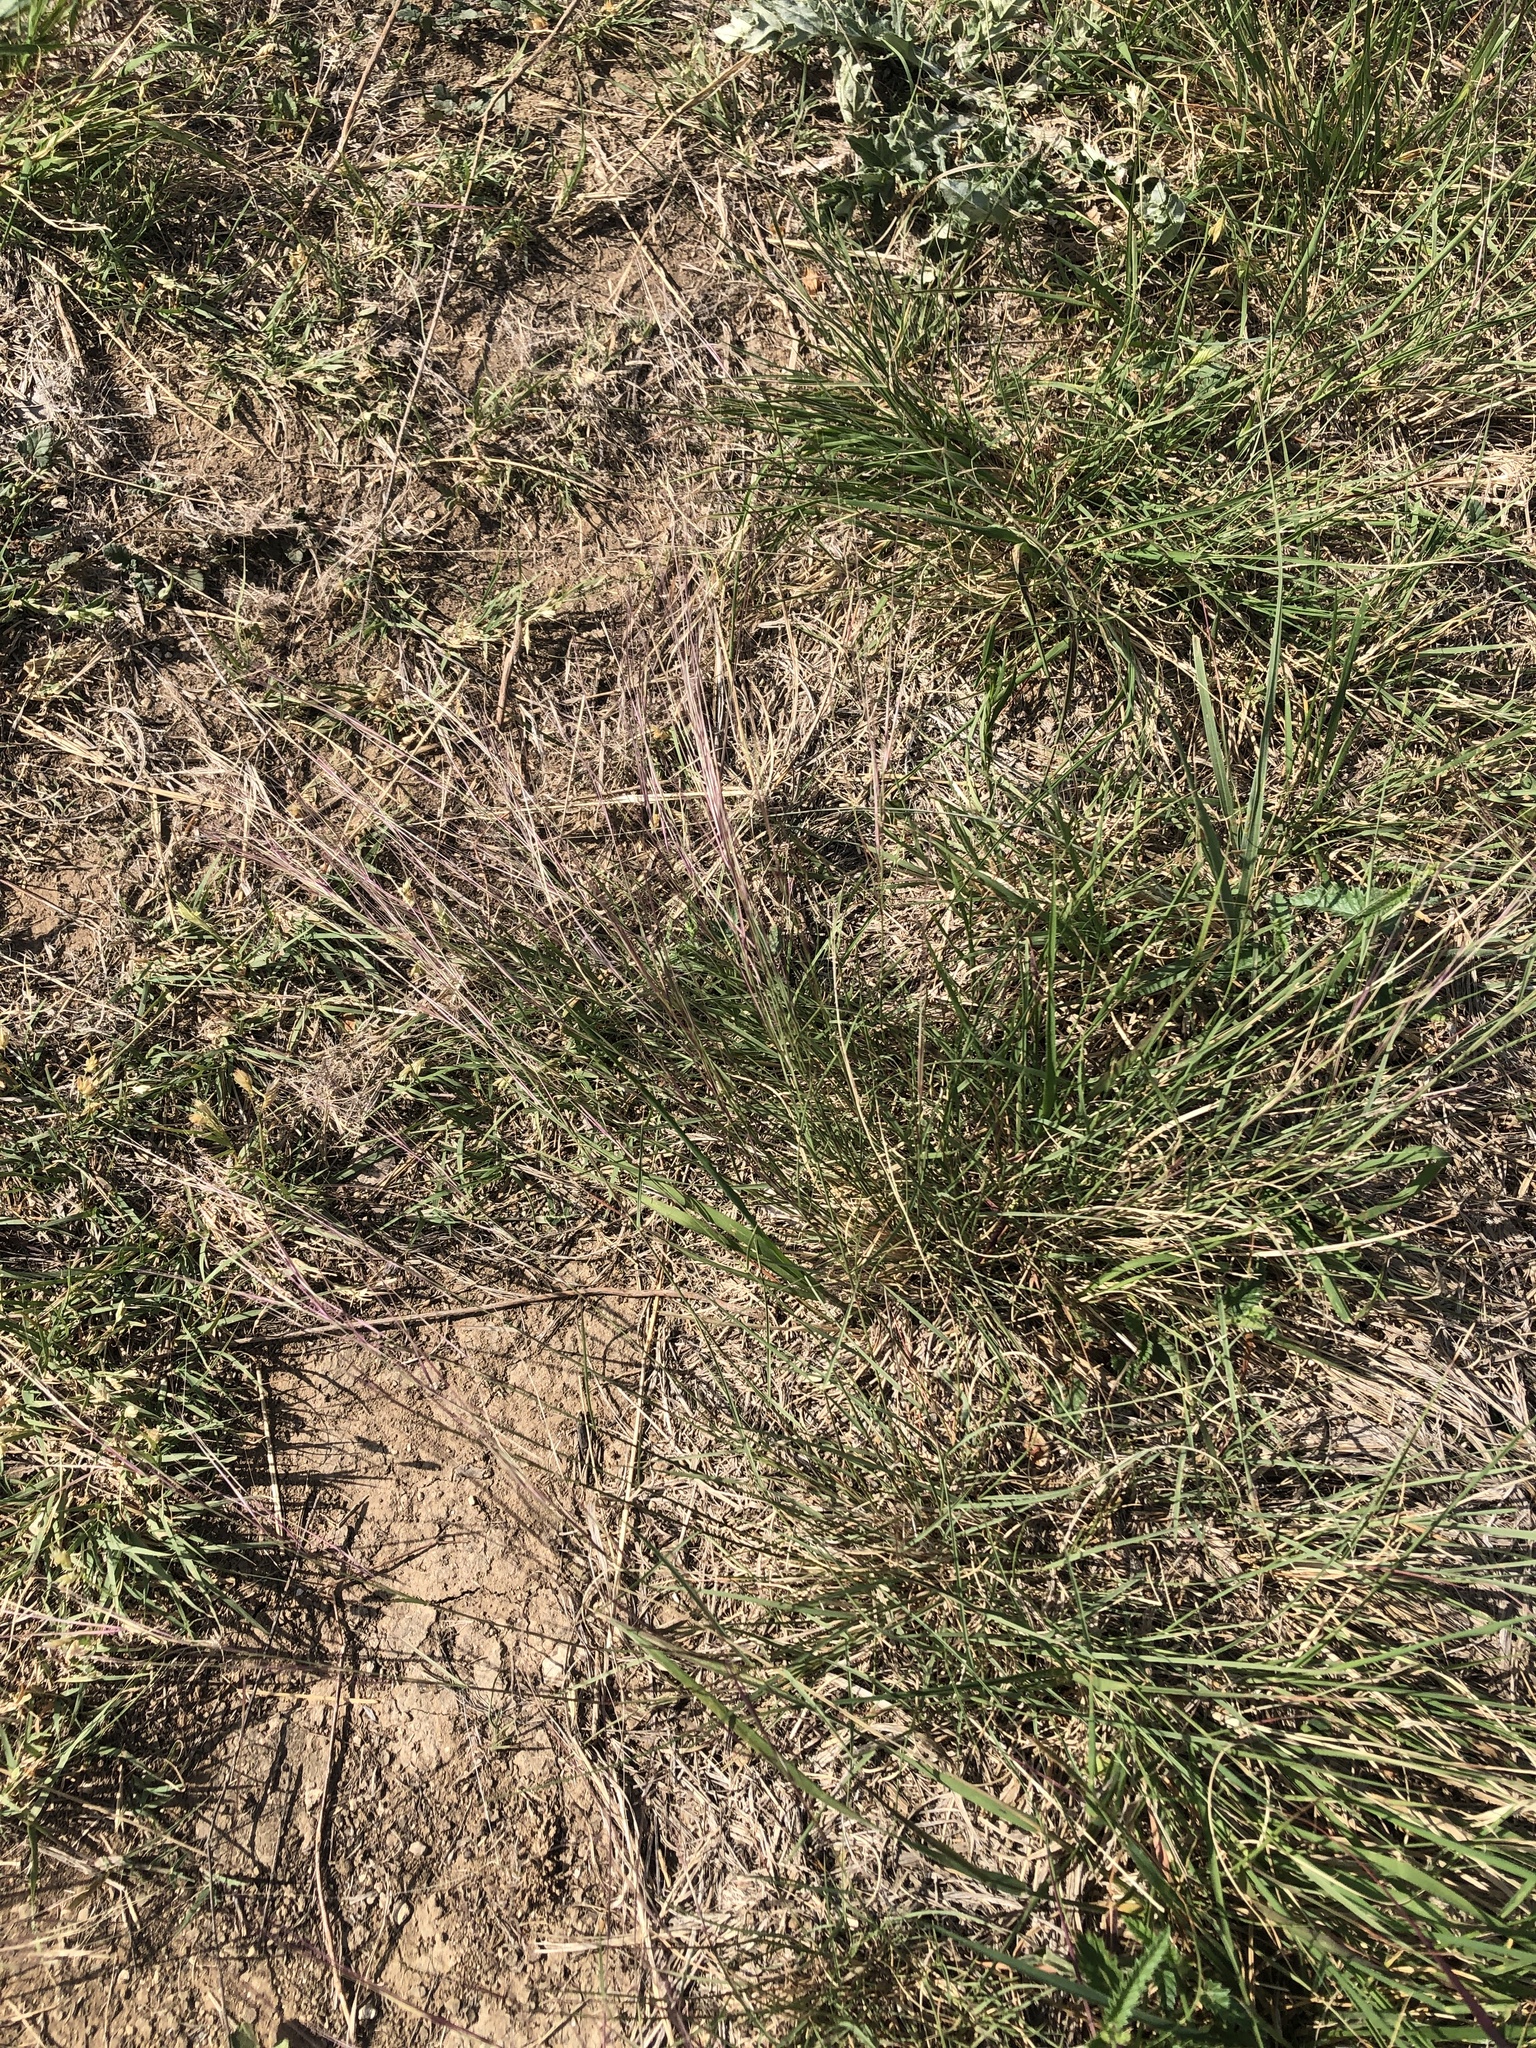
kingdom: Plantae
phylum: Tracheophyta
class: Liliopsida
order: Poales
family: Poaceae
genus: Aristida
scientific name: Aristida purpurea
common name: Purple threeawn
